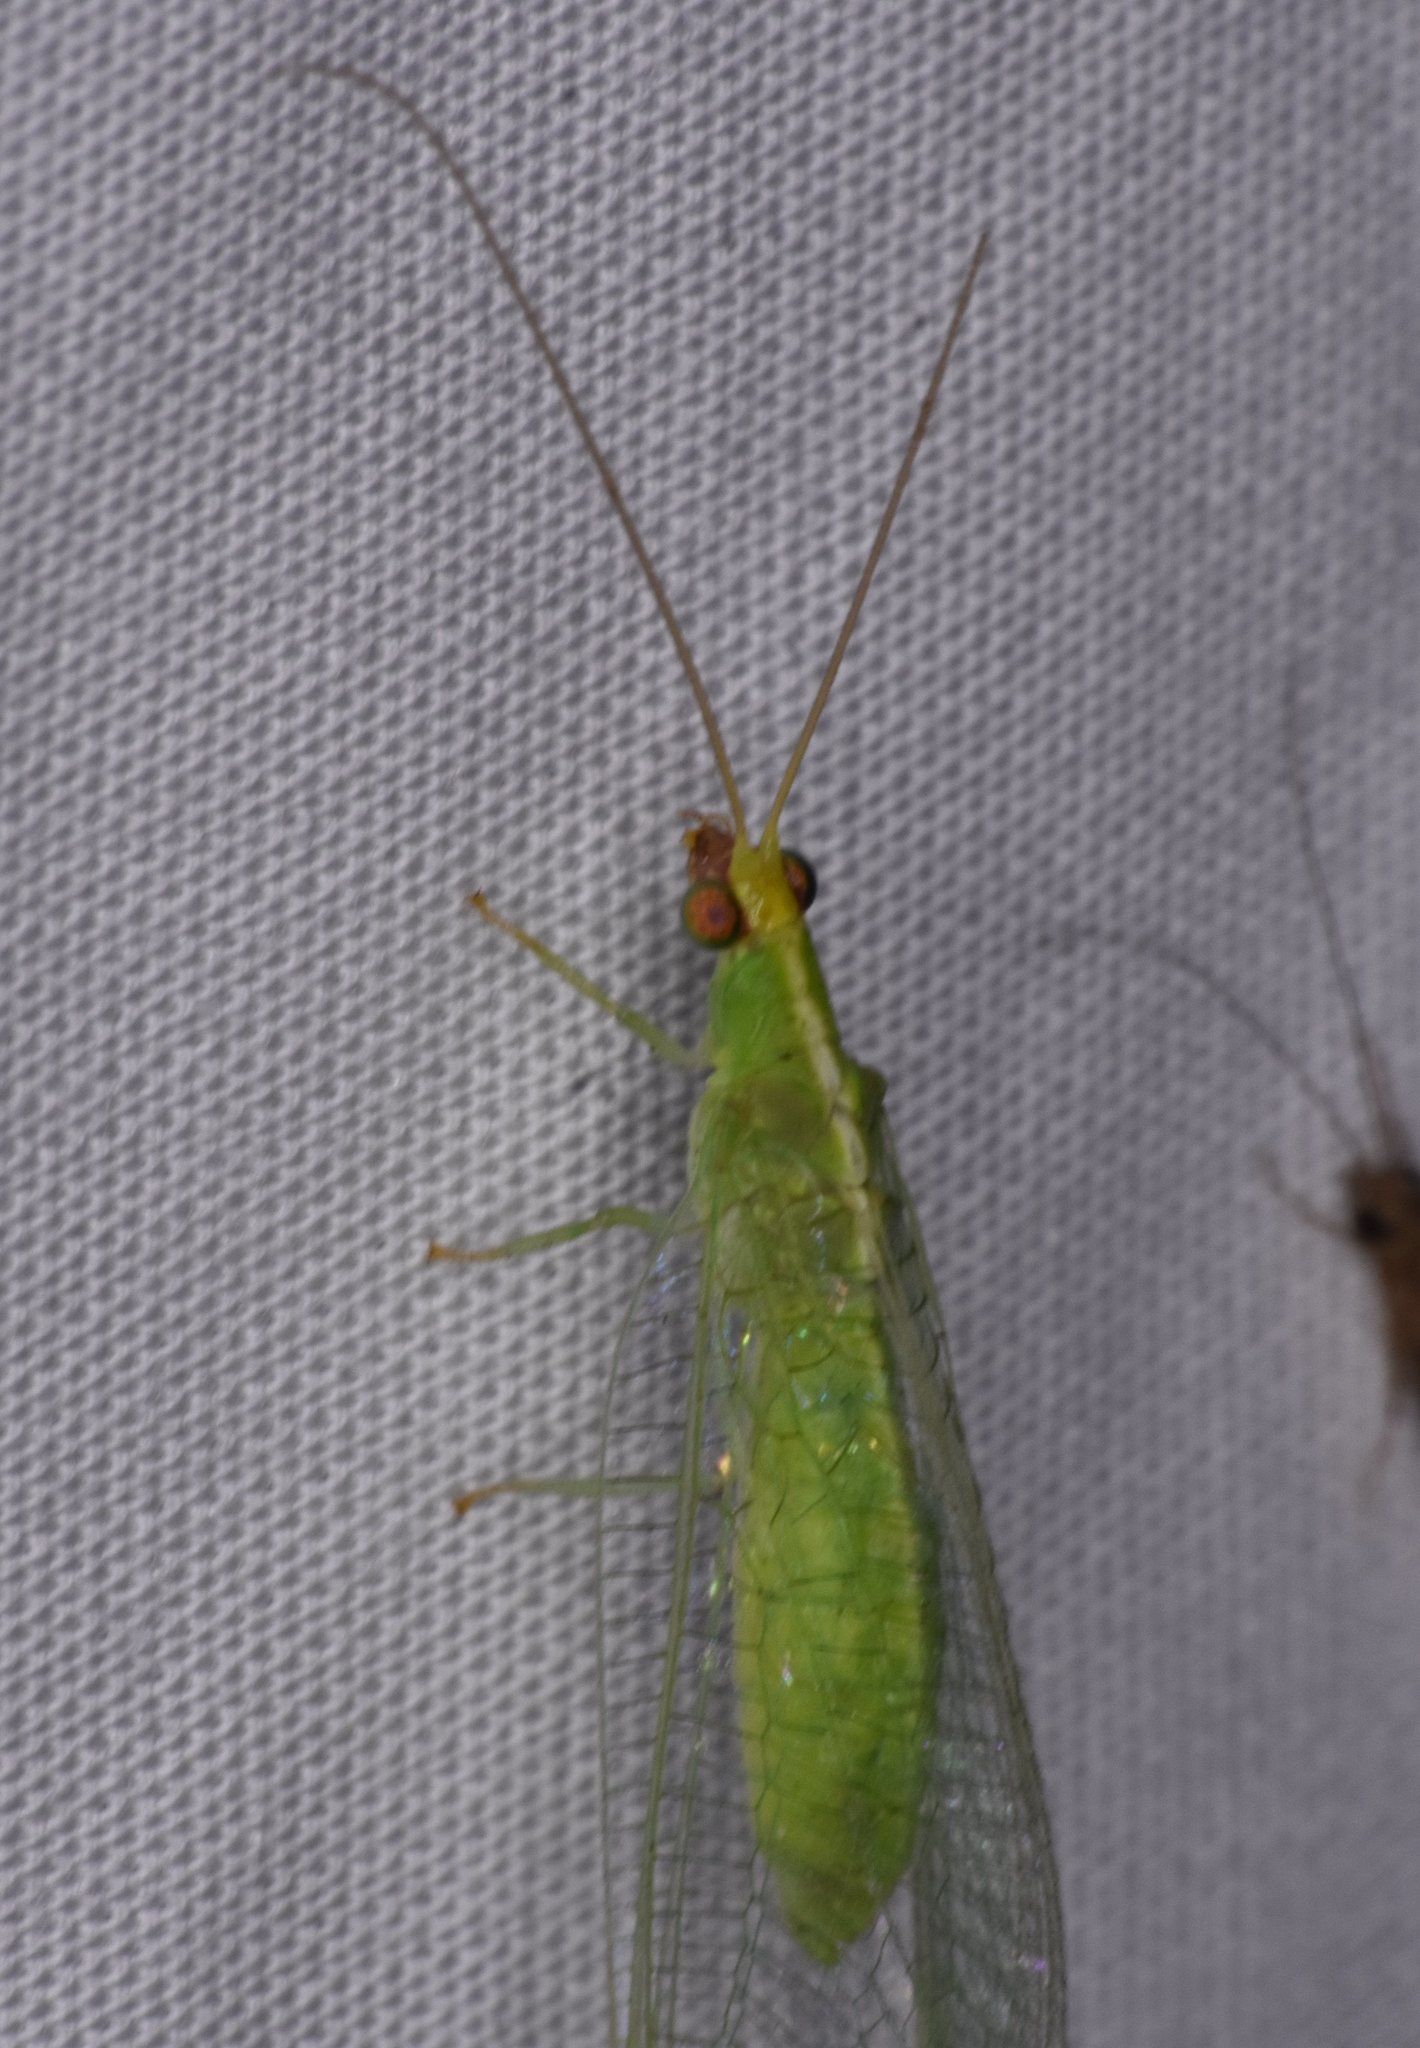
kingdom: Animalia
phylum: Arthropoda
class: Insecta
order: Neuroptera
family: Chrysopidae
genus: Chrysopodes
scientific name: Chrysopodes collaris
